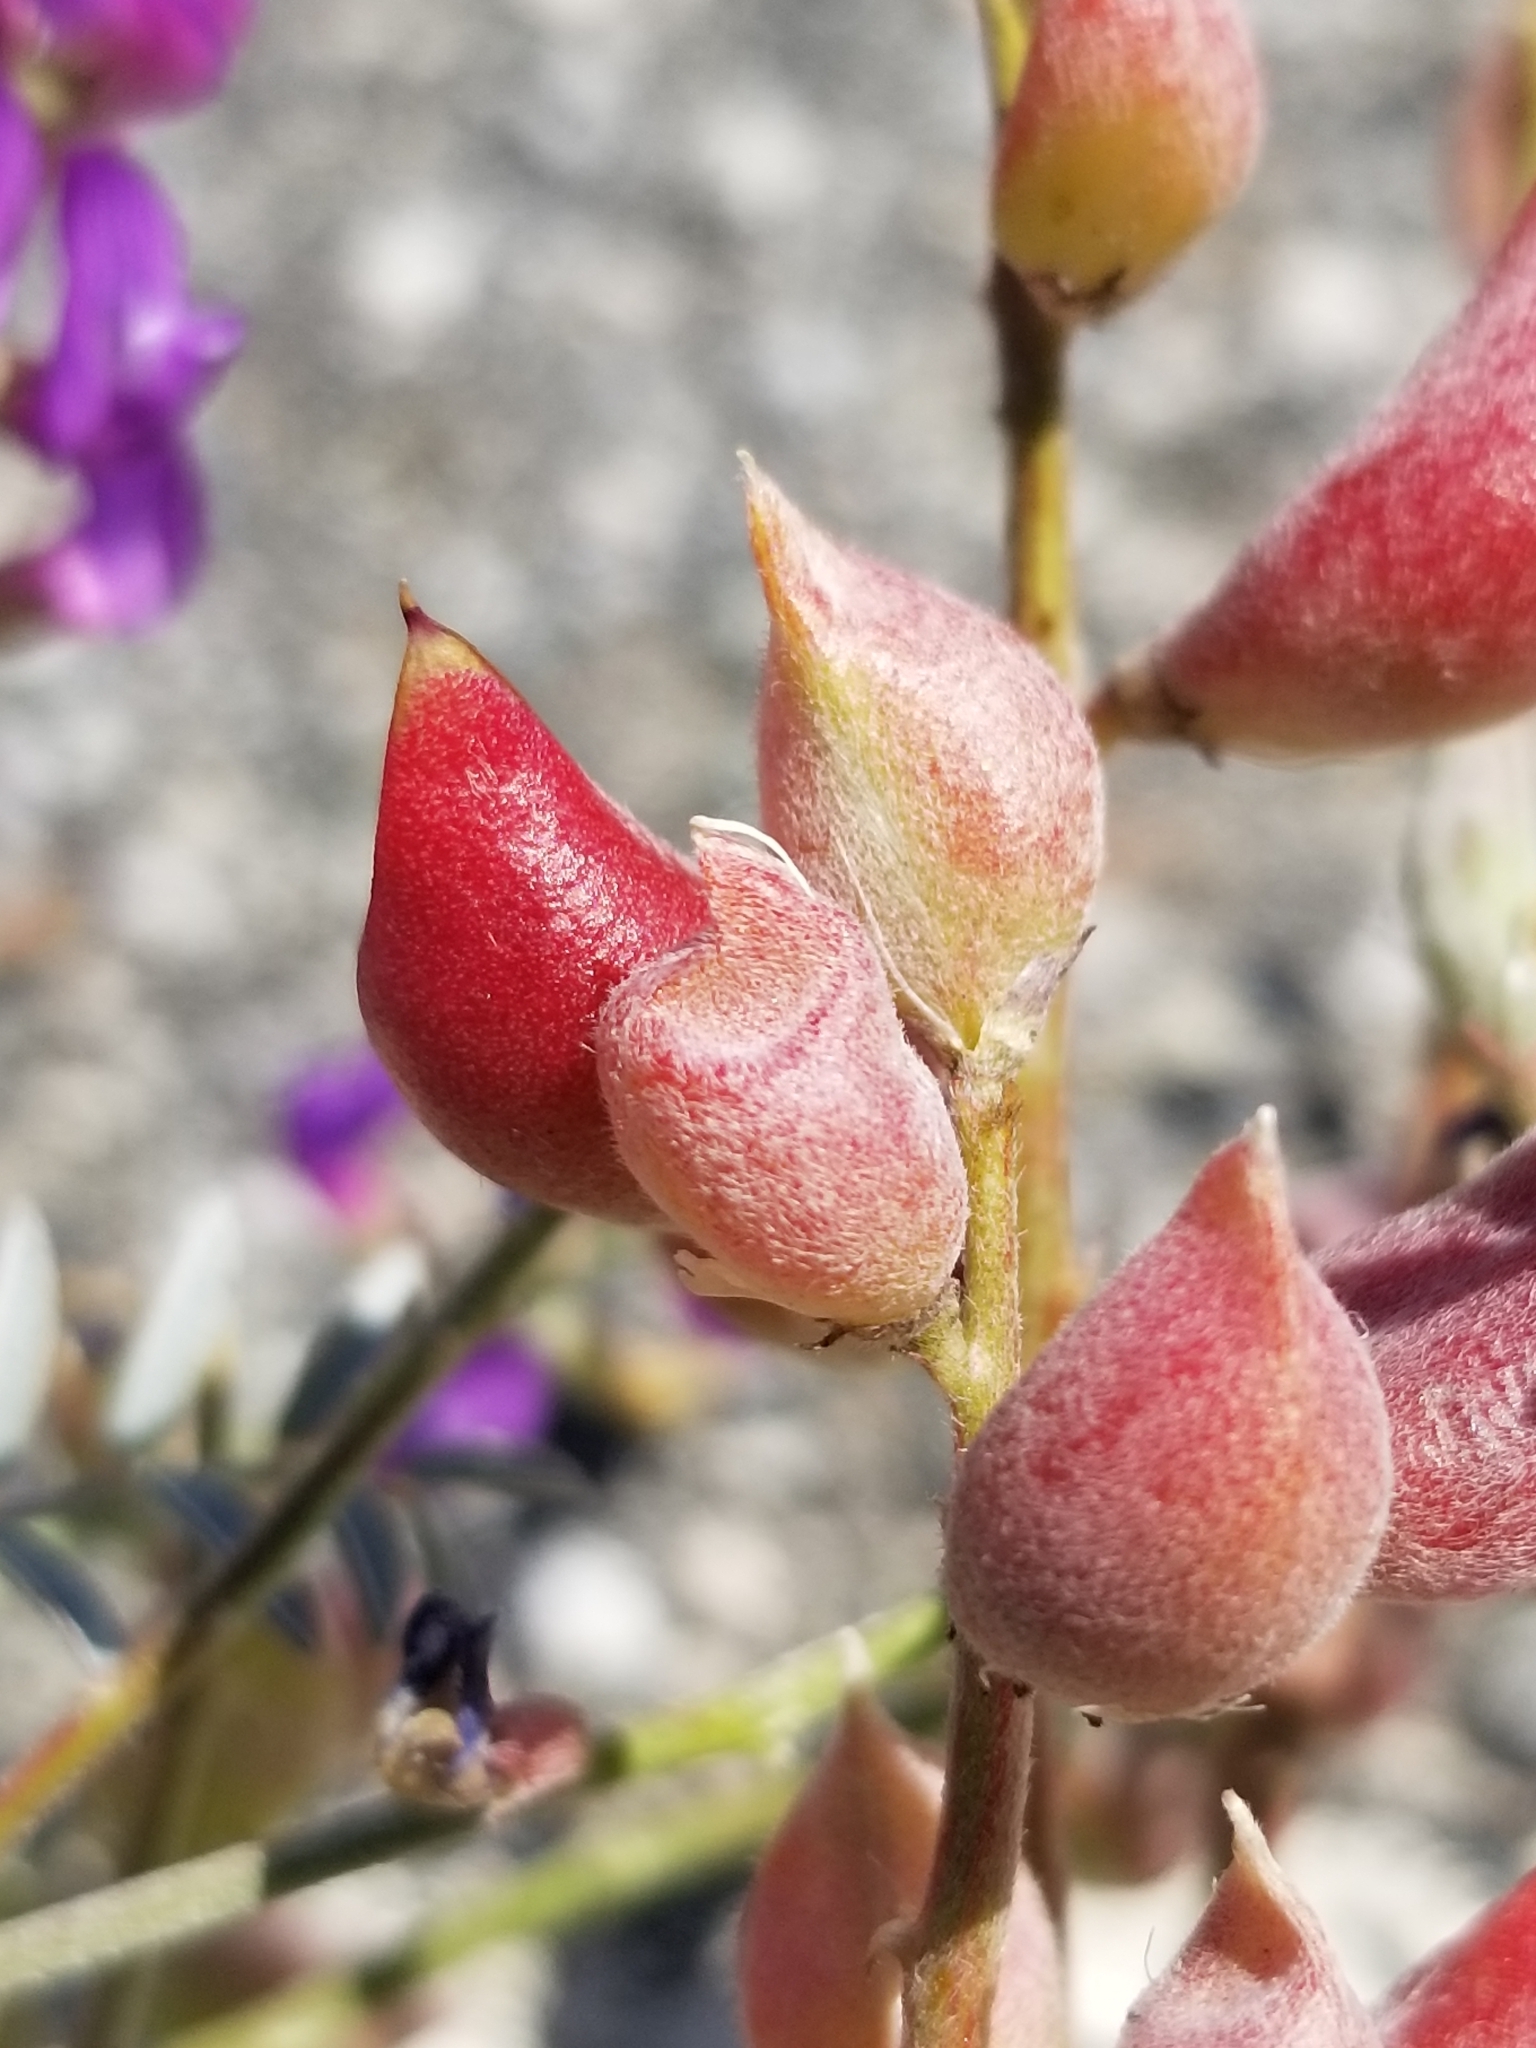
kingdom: Plantae
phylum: Tracheophyta
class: Magnoliopsida
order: Fabales
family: Fabaceae
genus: Astragalus
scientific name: Astragalus palmeri
